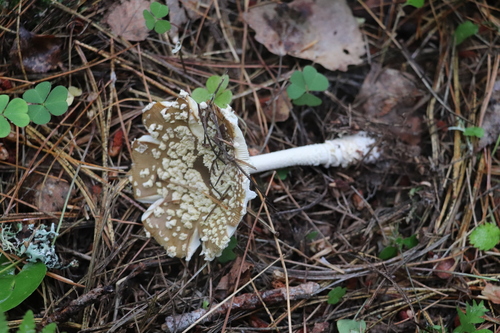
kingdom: Fungi
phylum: Basidiomycota
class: Agaricomycetes
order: Agaricales
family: Amanitaceae
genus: Amanita
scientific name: Amanita regalis
